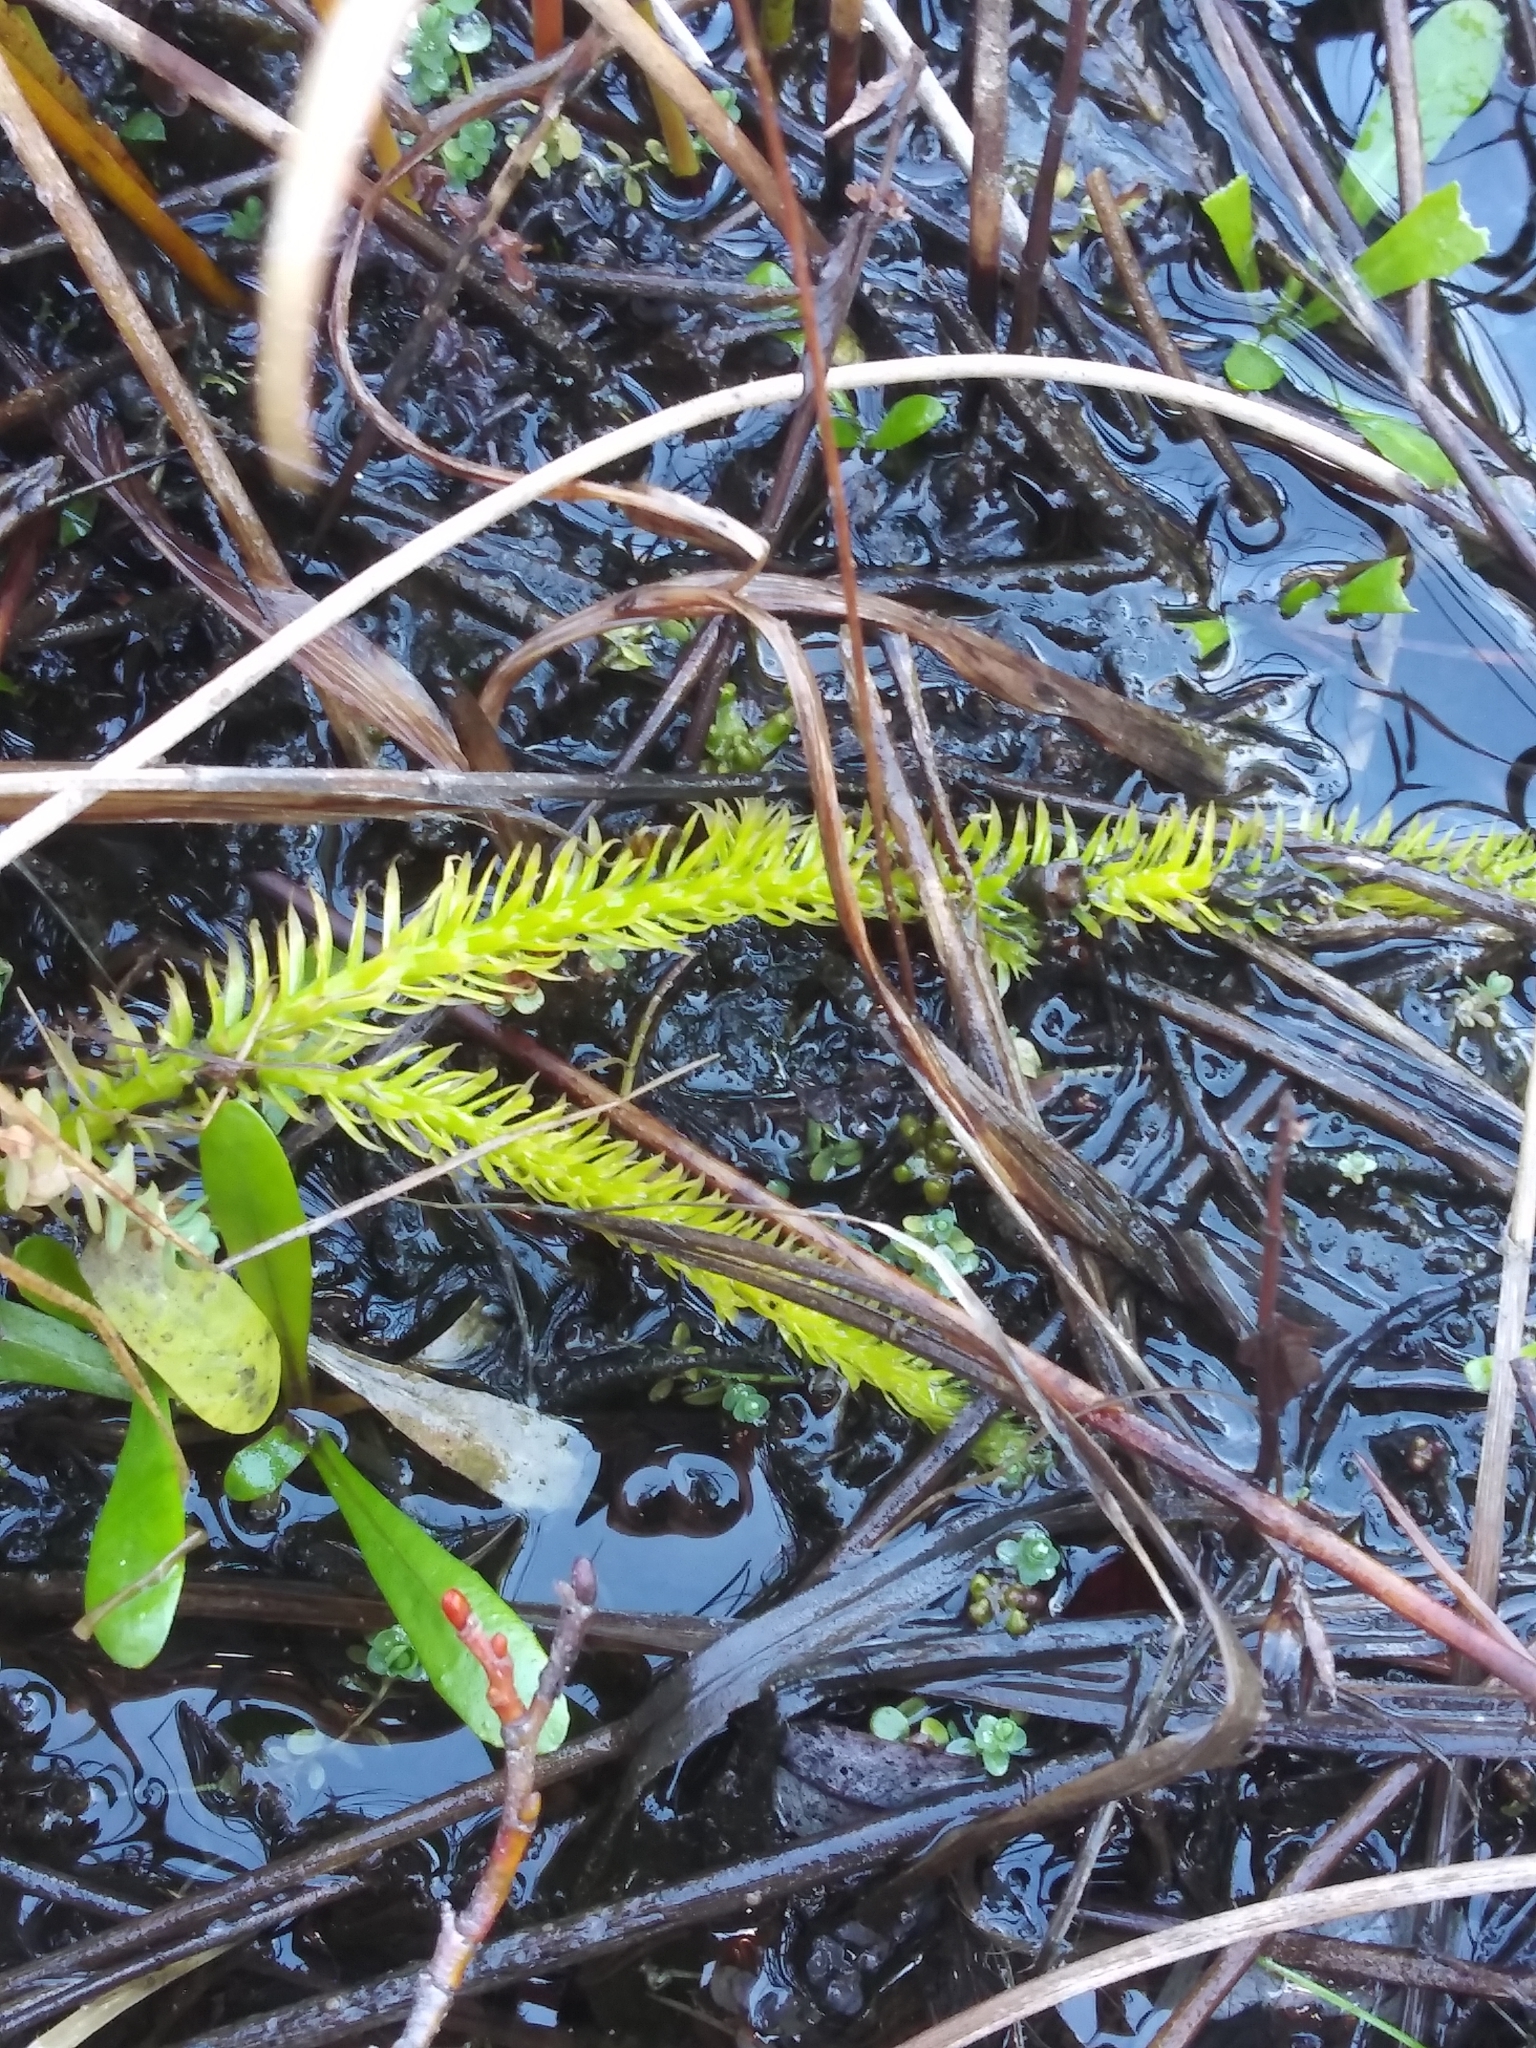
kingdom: Plantae
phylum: Tracheophyta
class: Lycopodiopsida
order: Lycopodiales
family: Lycopodiaceae
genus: Lycopodiella
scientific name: Lycopodiella inundata
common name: Marsh clubmoss
